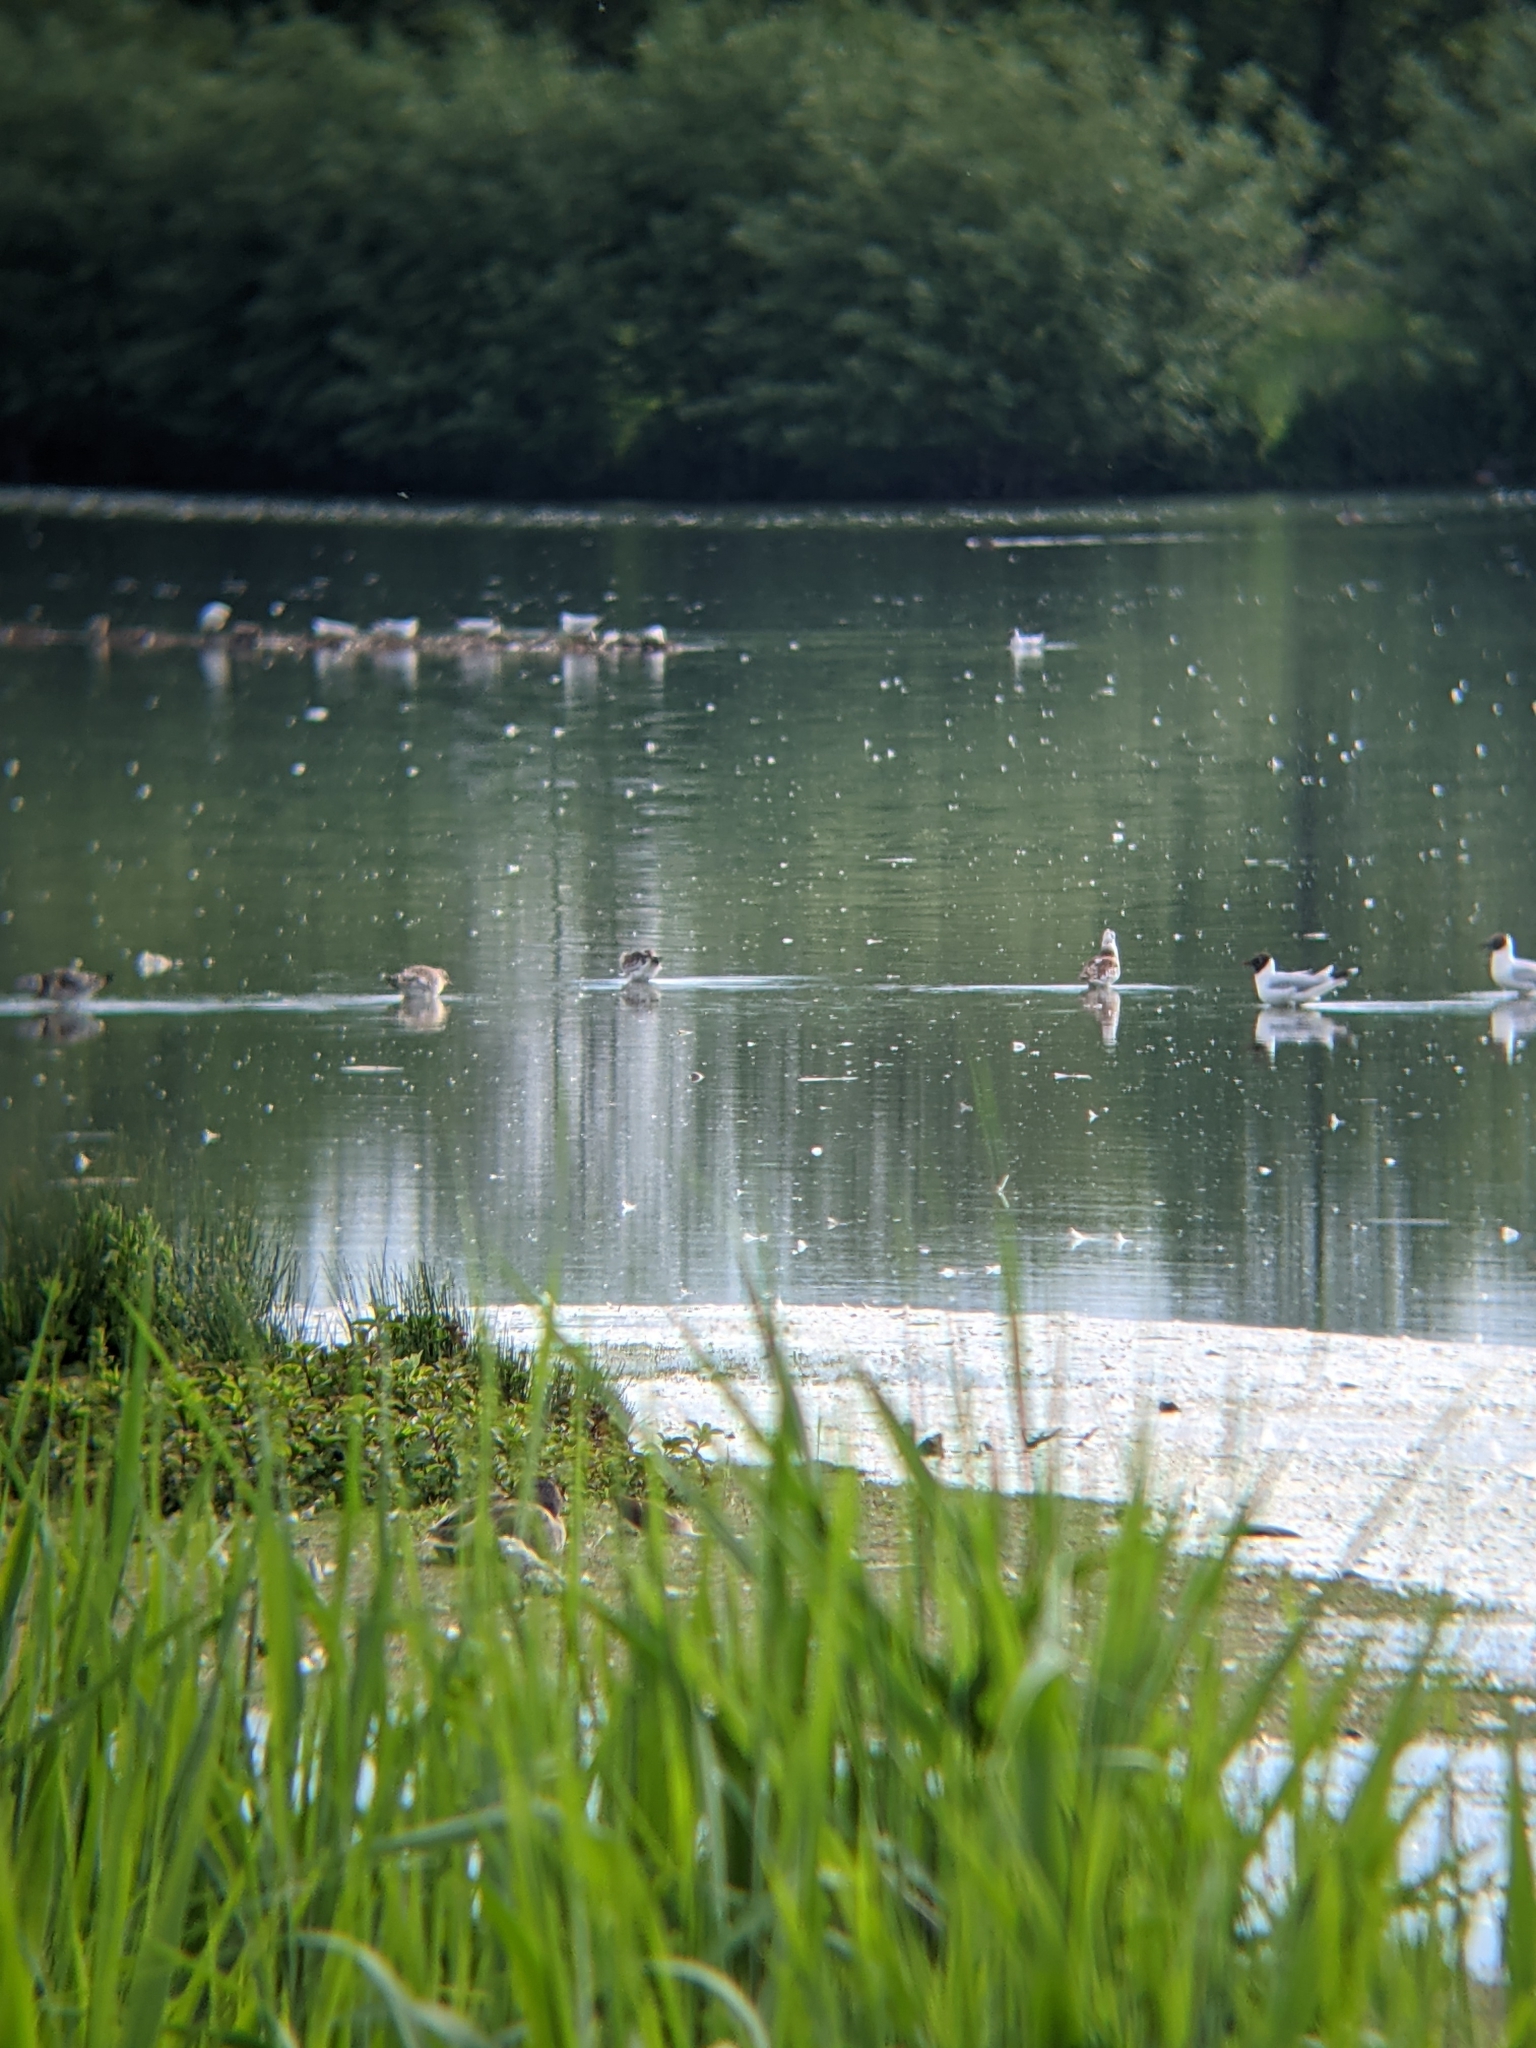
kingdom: Animalia
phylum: Chordata
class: Aves
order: Charadriiformes
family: Laridae
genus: Chroicocephalus
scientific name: Chroicocephalus ridibundus
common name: Black-headed gull
